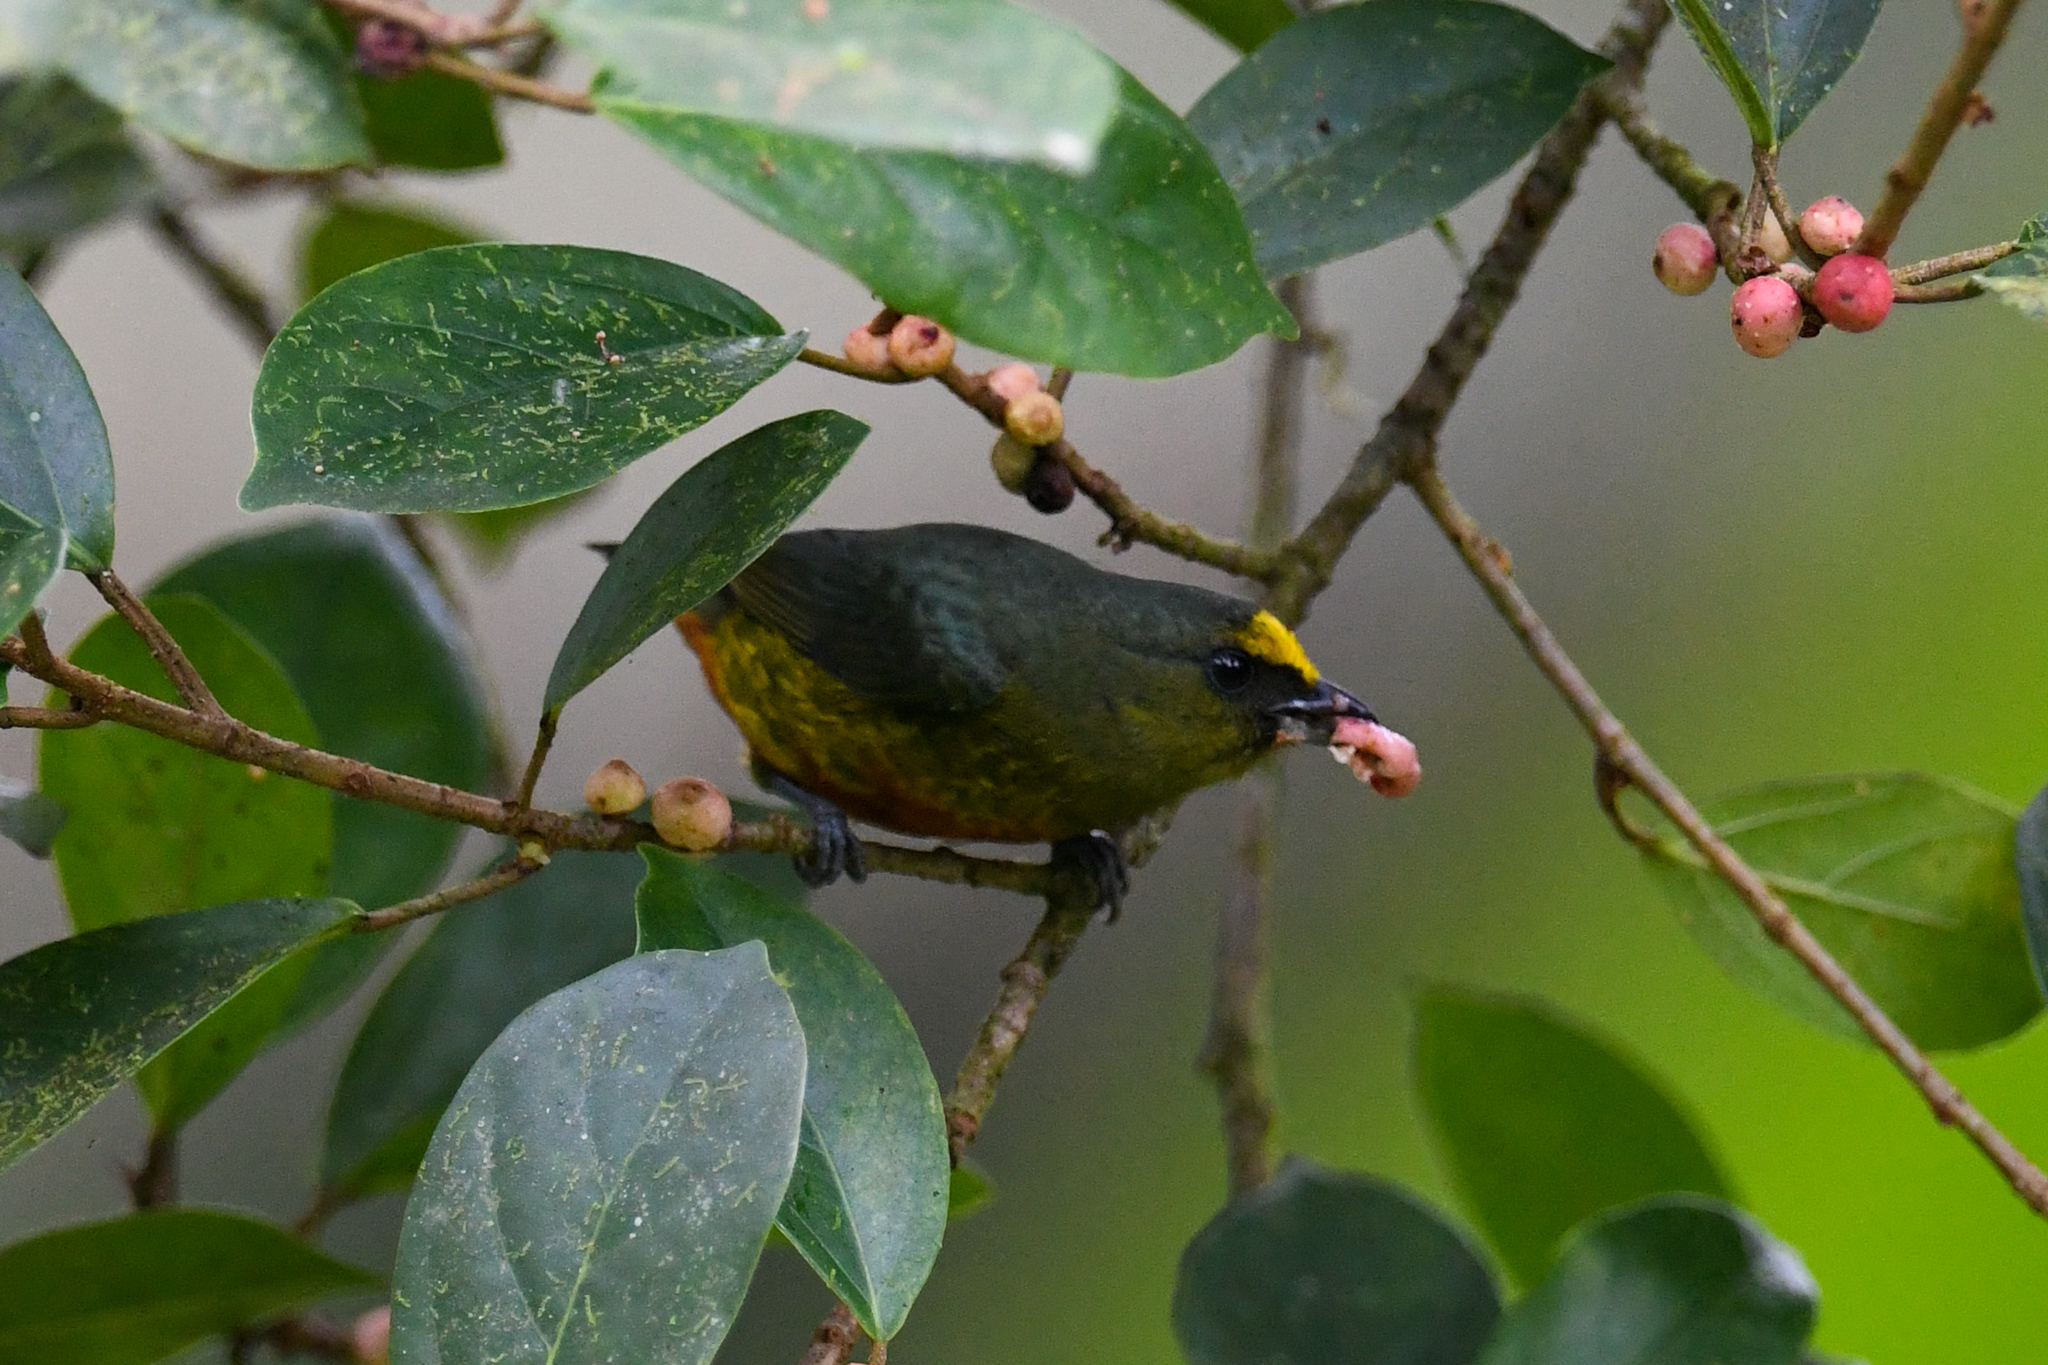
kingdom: Animalia
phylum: Chordata
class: Aves
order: Passeriformes
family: Fringillidae
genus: Euphonia
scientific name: Euphonia gouldi
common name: Olive-backed euphonia
